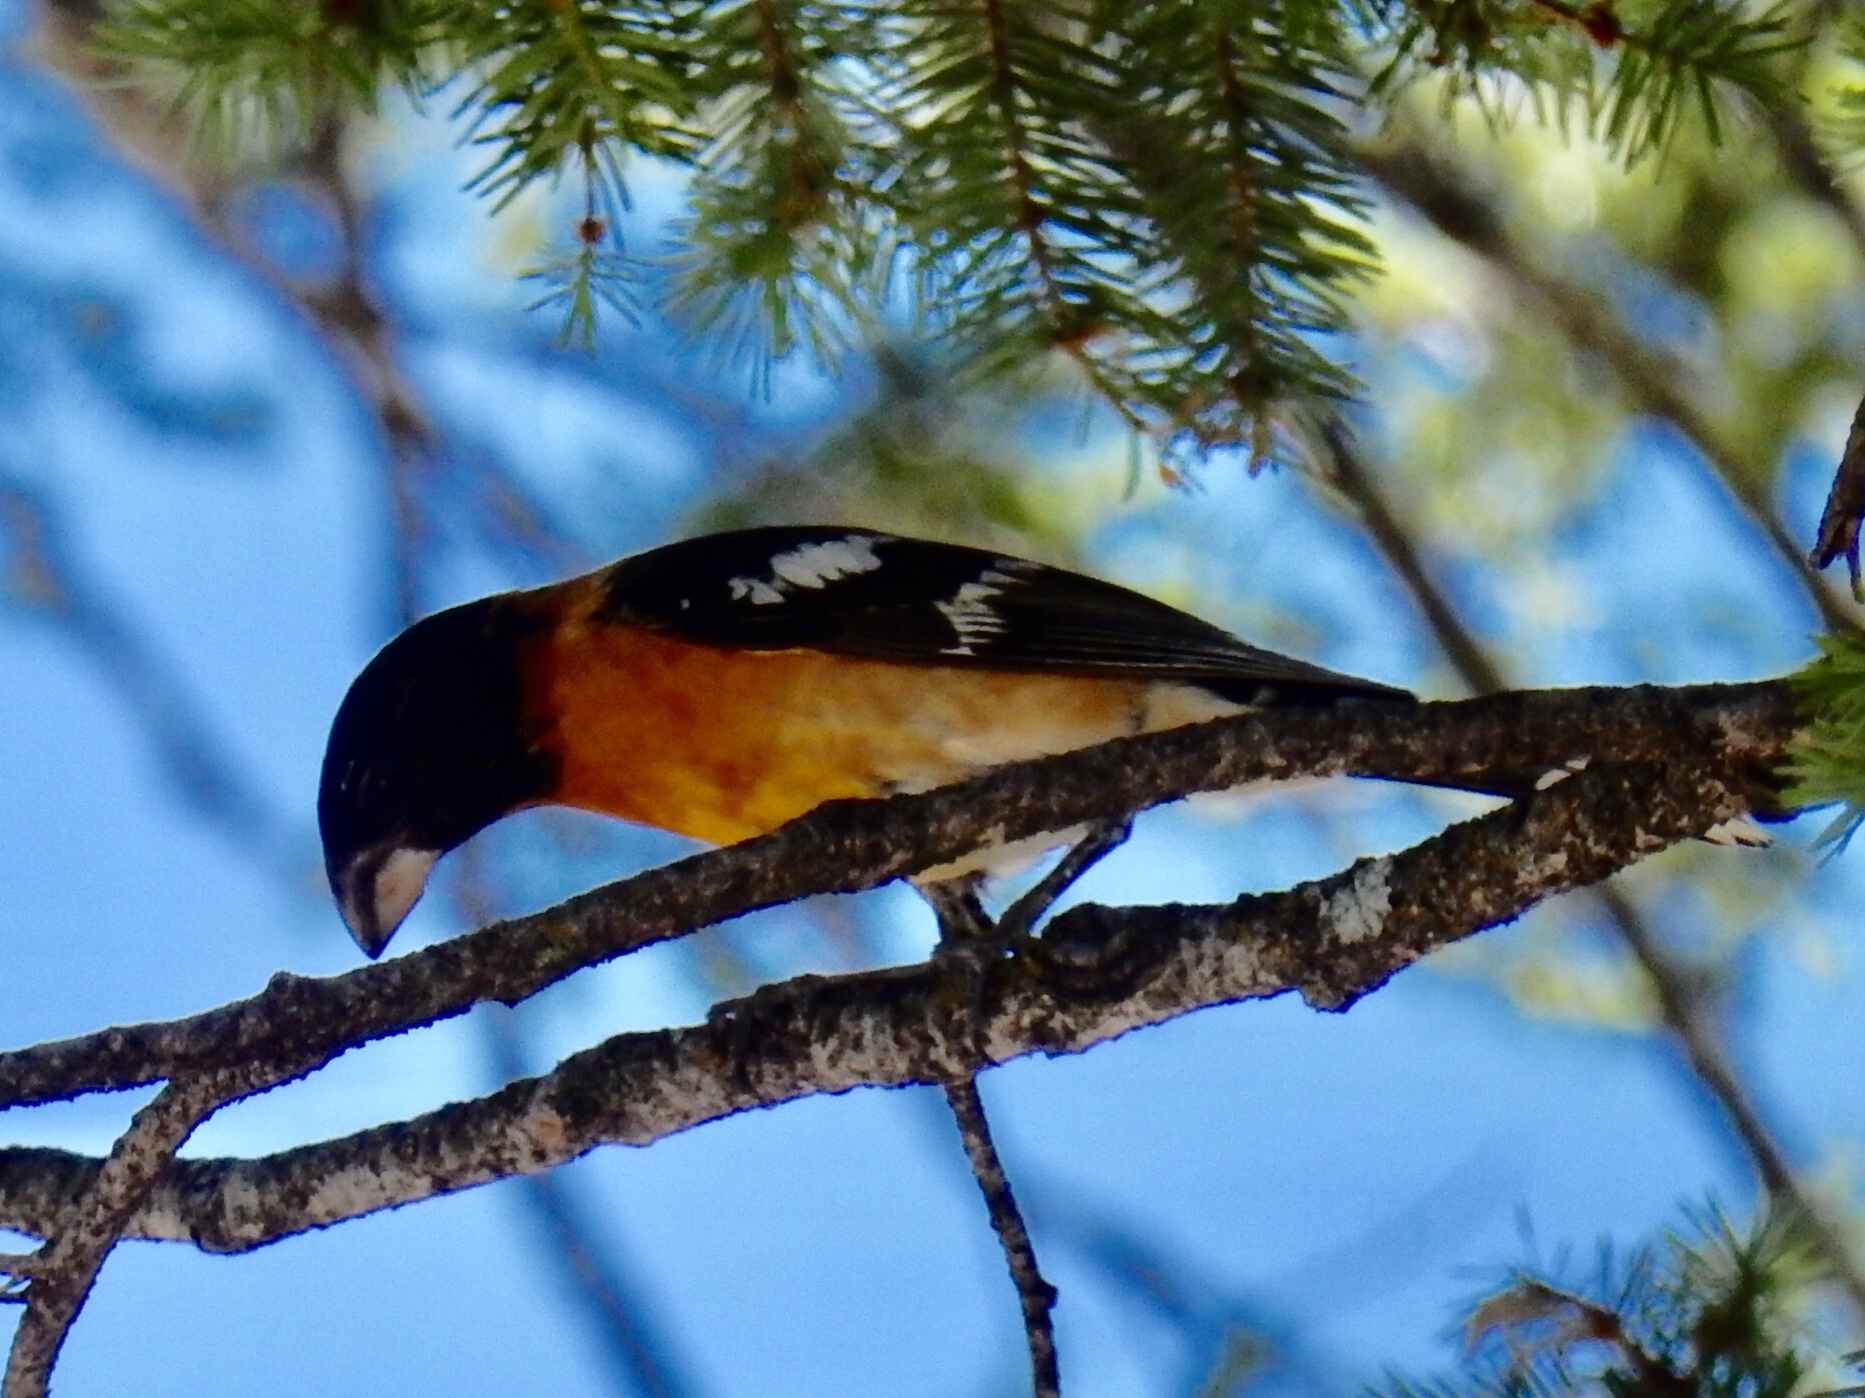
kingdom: Animalia
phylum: Chordata
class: Aves
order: Passeriformes
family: Cardinalidae
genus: Pheucticus
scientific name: Pheucticus melanocephalus
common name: Black-headed grosbeak
